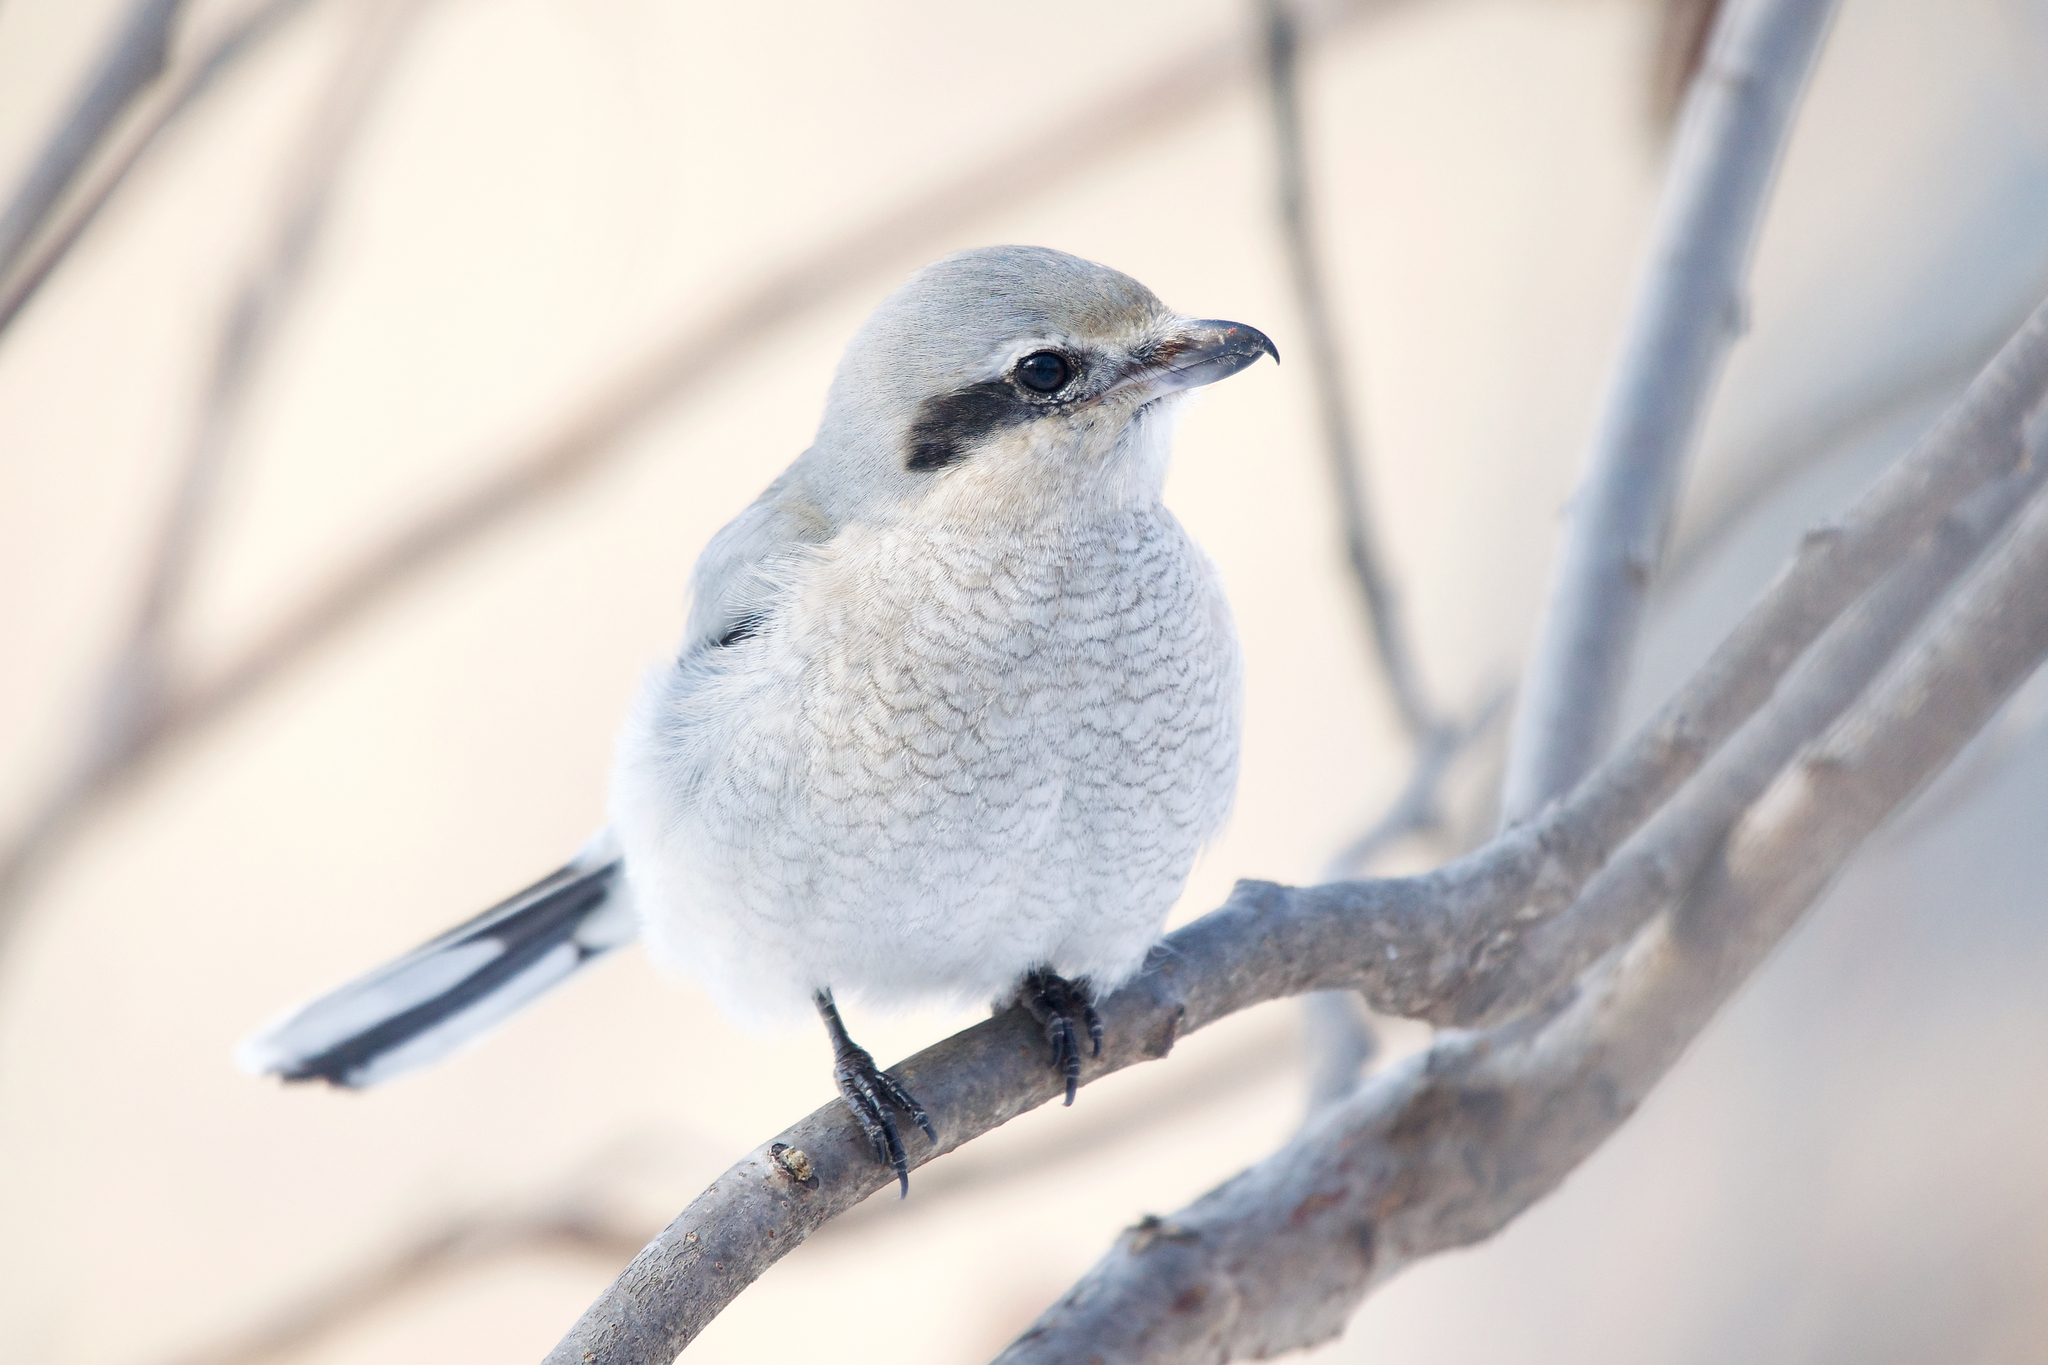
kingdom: Animalia
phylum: Chordata
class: Aves
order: Passeriformes
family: Laniidae
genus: Lanius
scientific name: Lanius borealis
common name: Northern shrike
